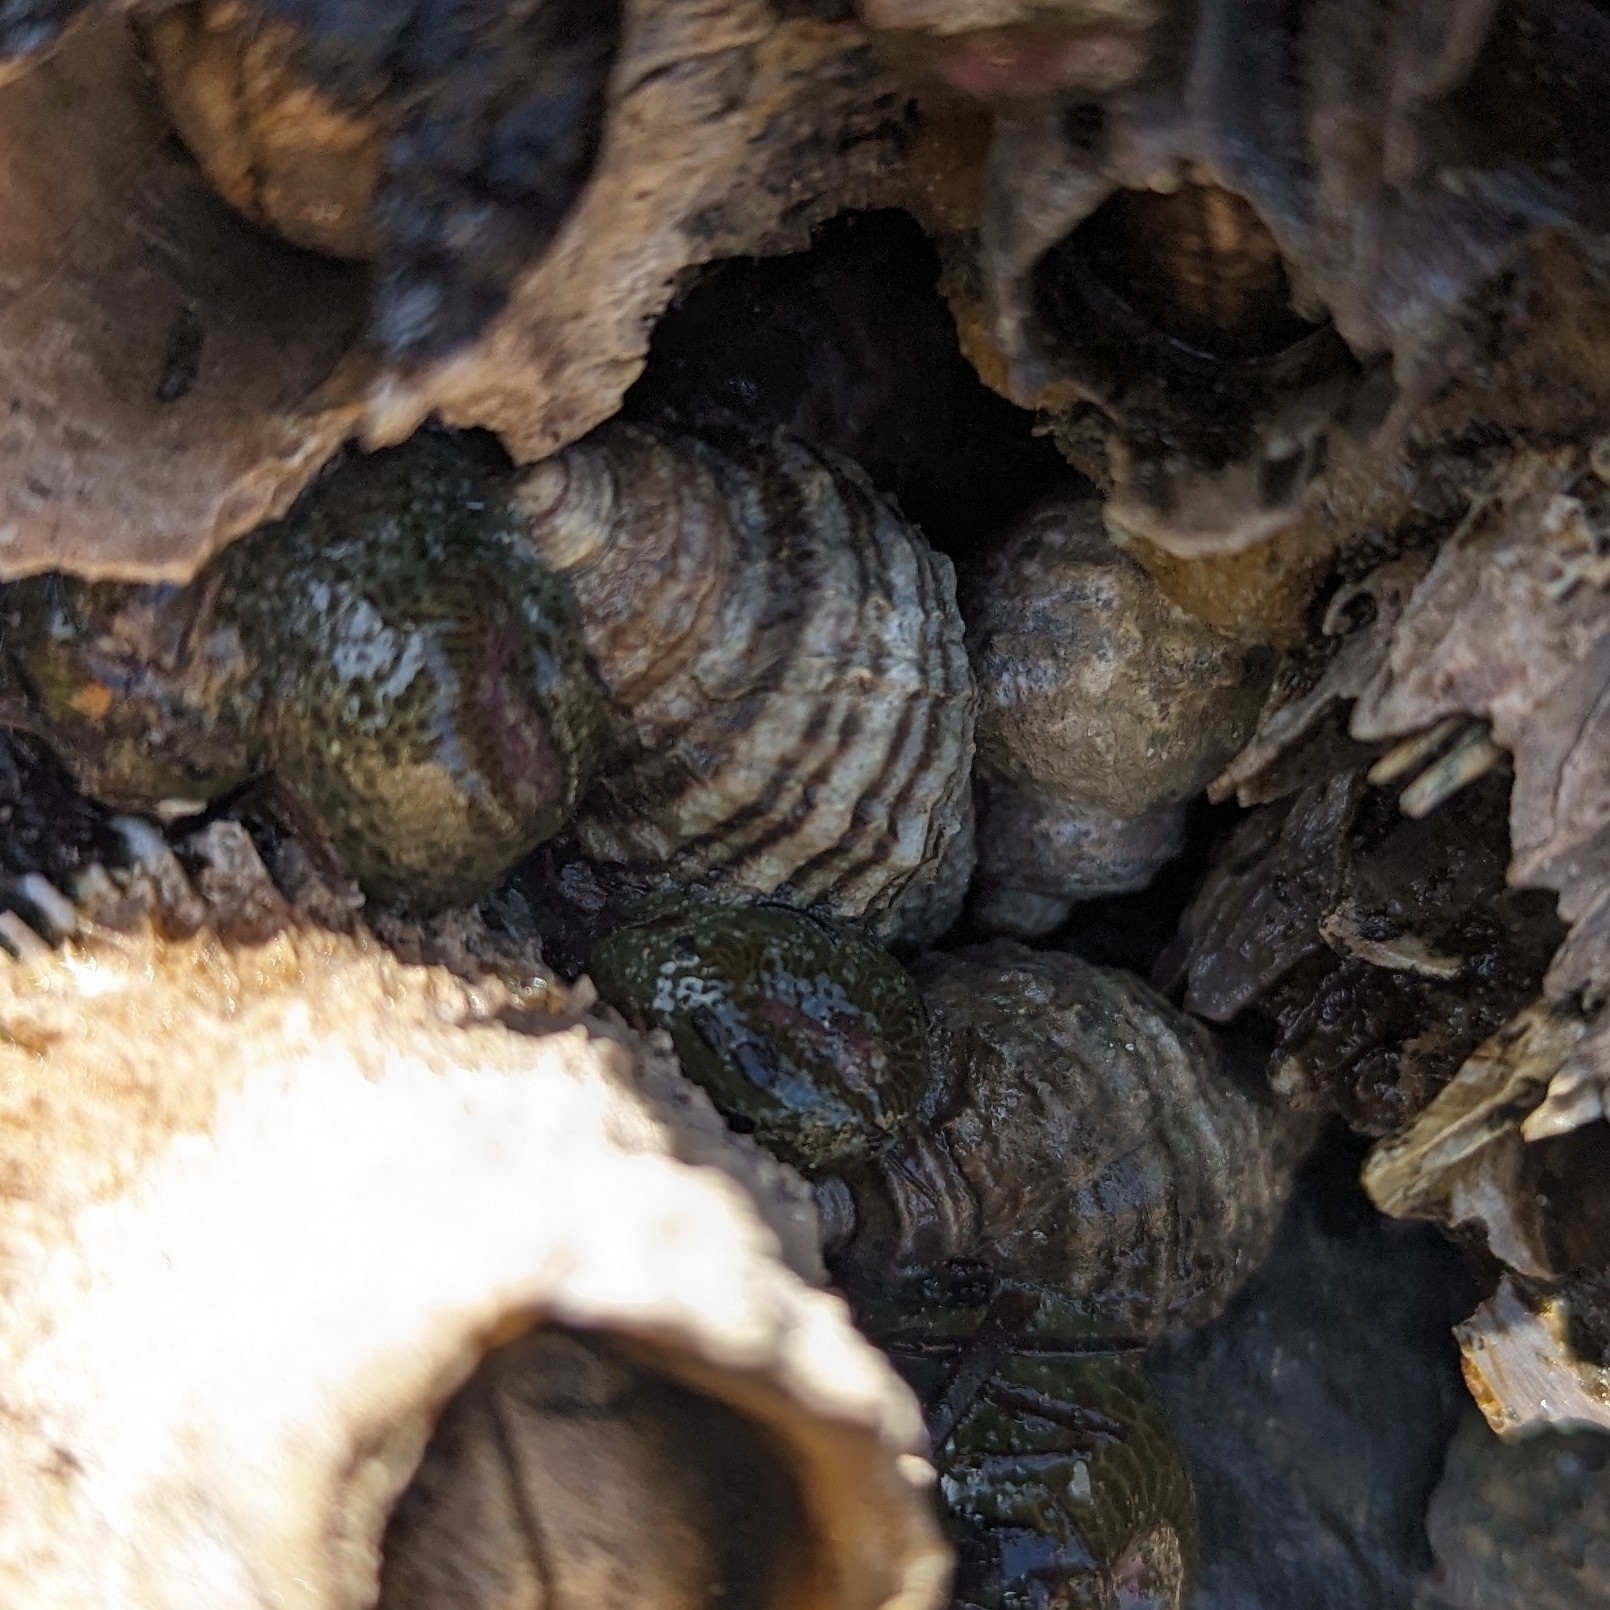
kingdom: Animalia
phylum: Mollusca
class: Gastropoda
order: Neogastropoda
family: Muricidae
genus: Nucella
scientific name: Nucella ostrina
